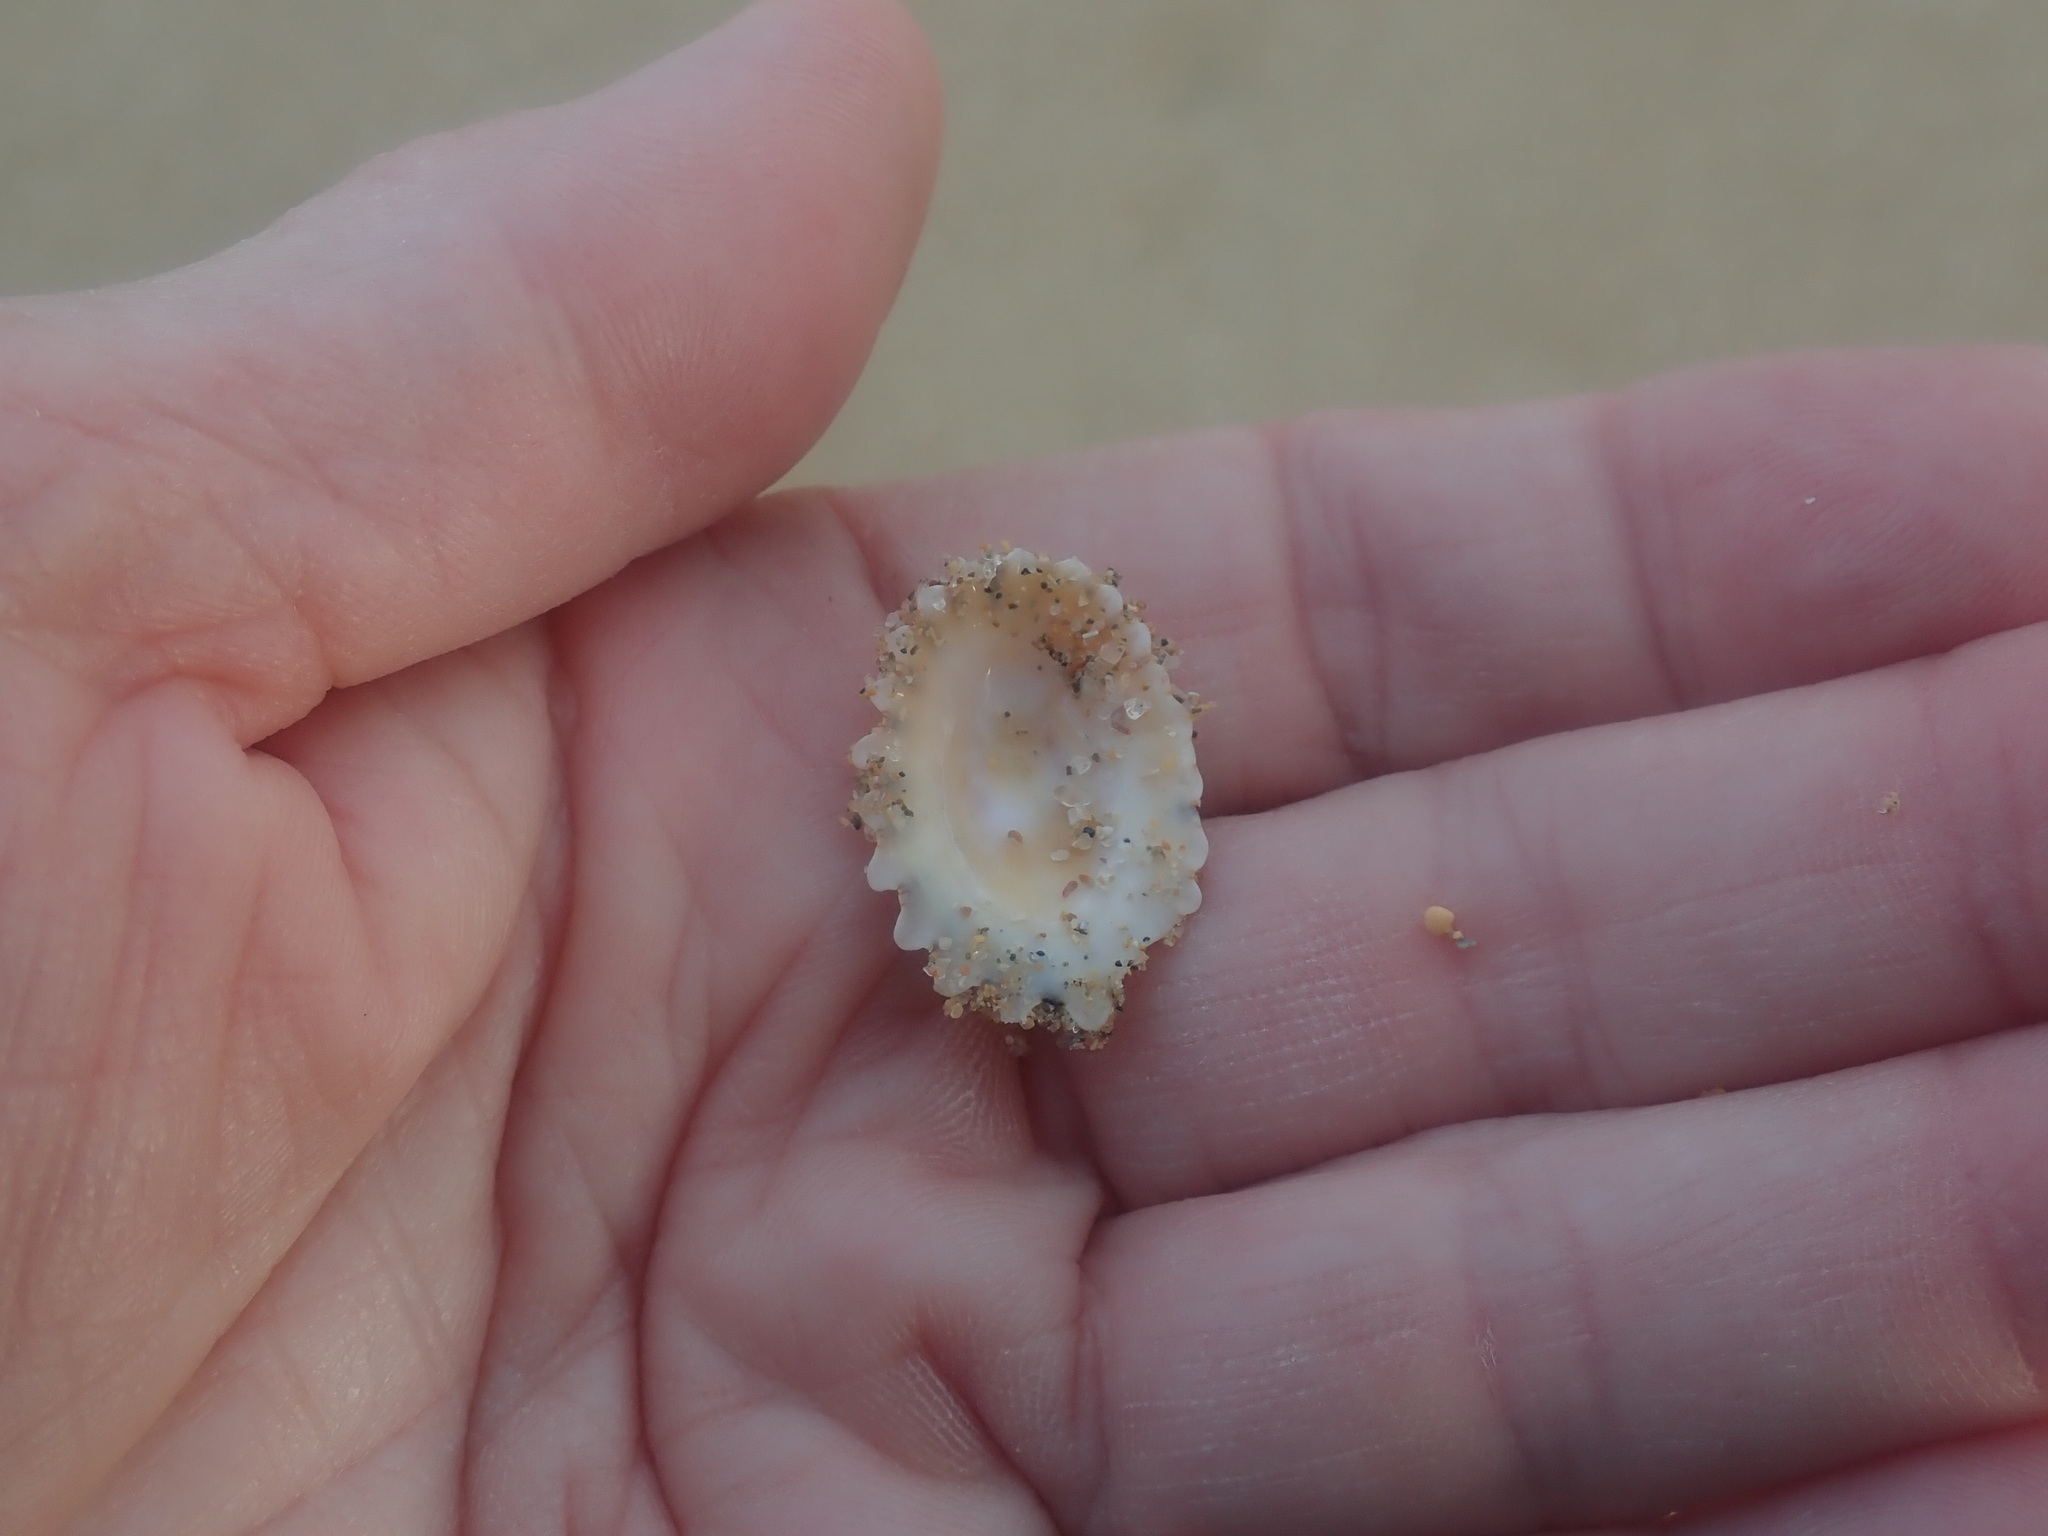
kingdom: Animalia
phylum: Mollusca
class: Gastropoda
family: Patellidae
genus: Scutellastra
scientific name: Scutellastra peronii
